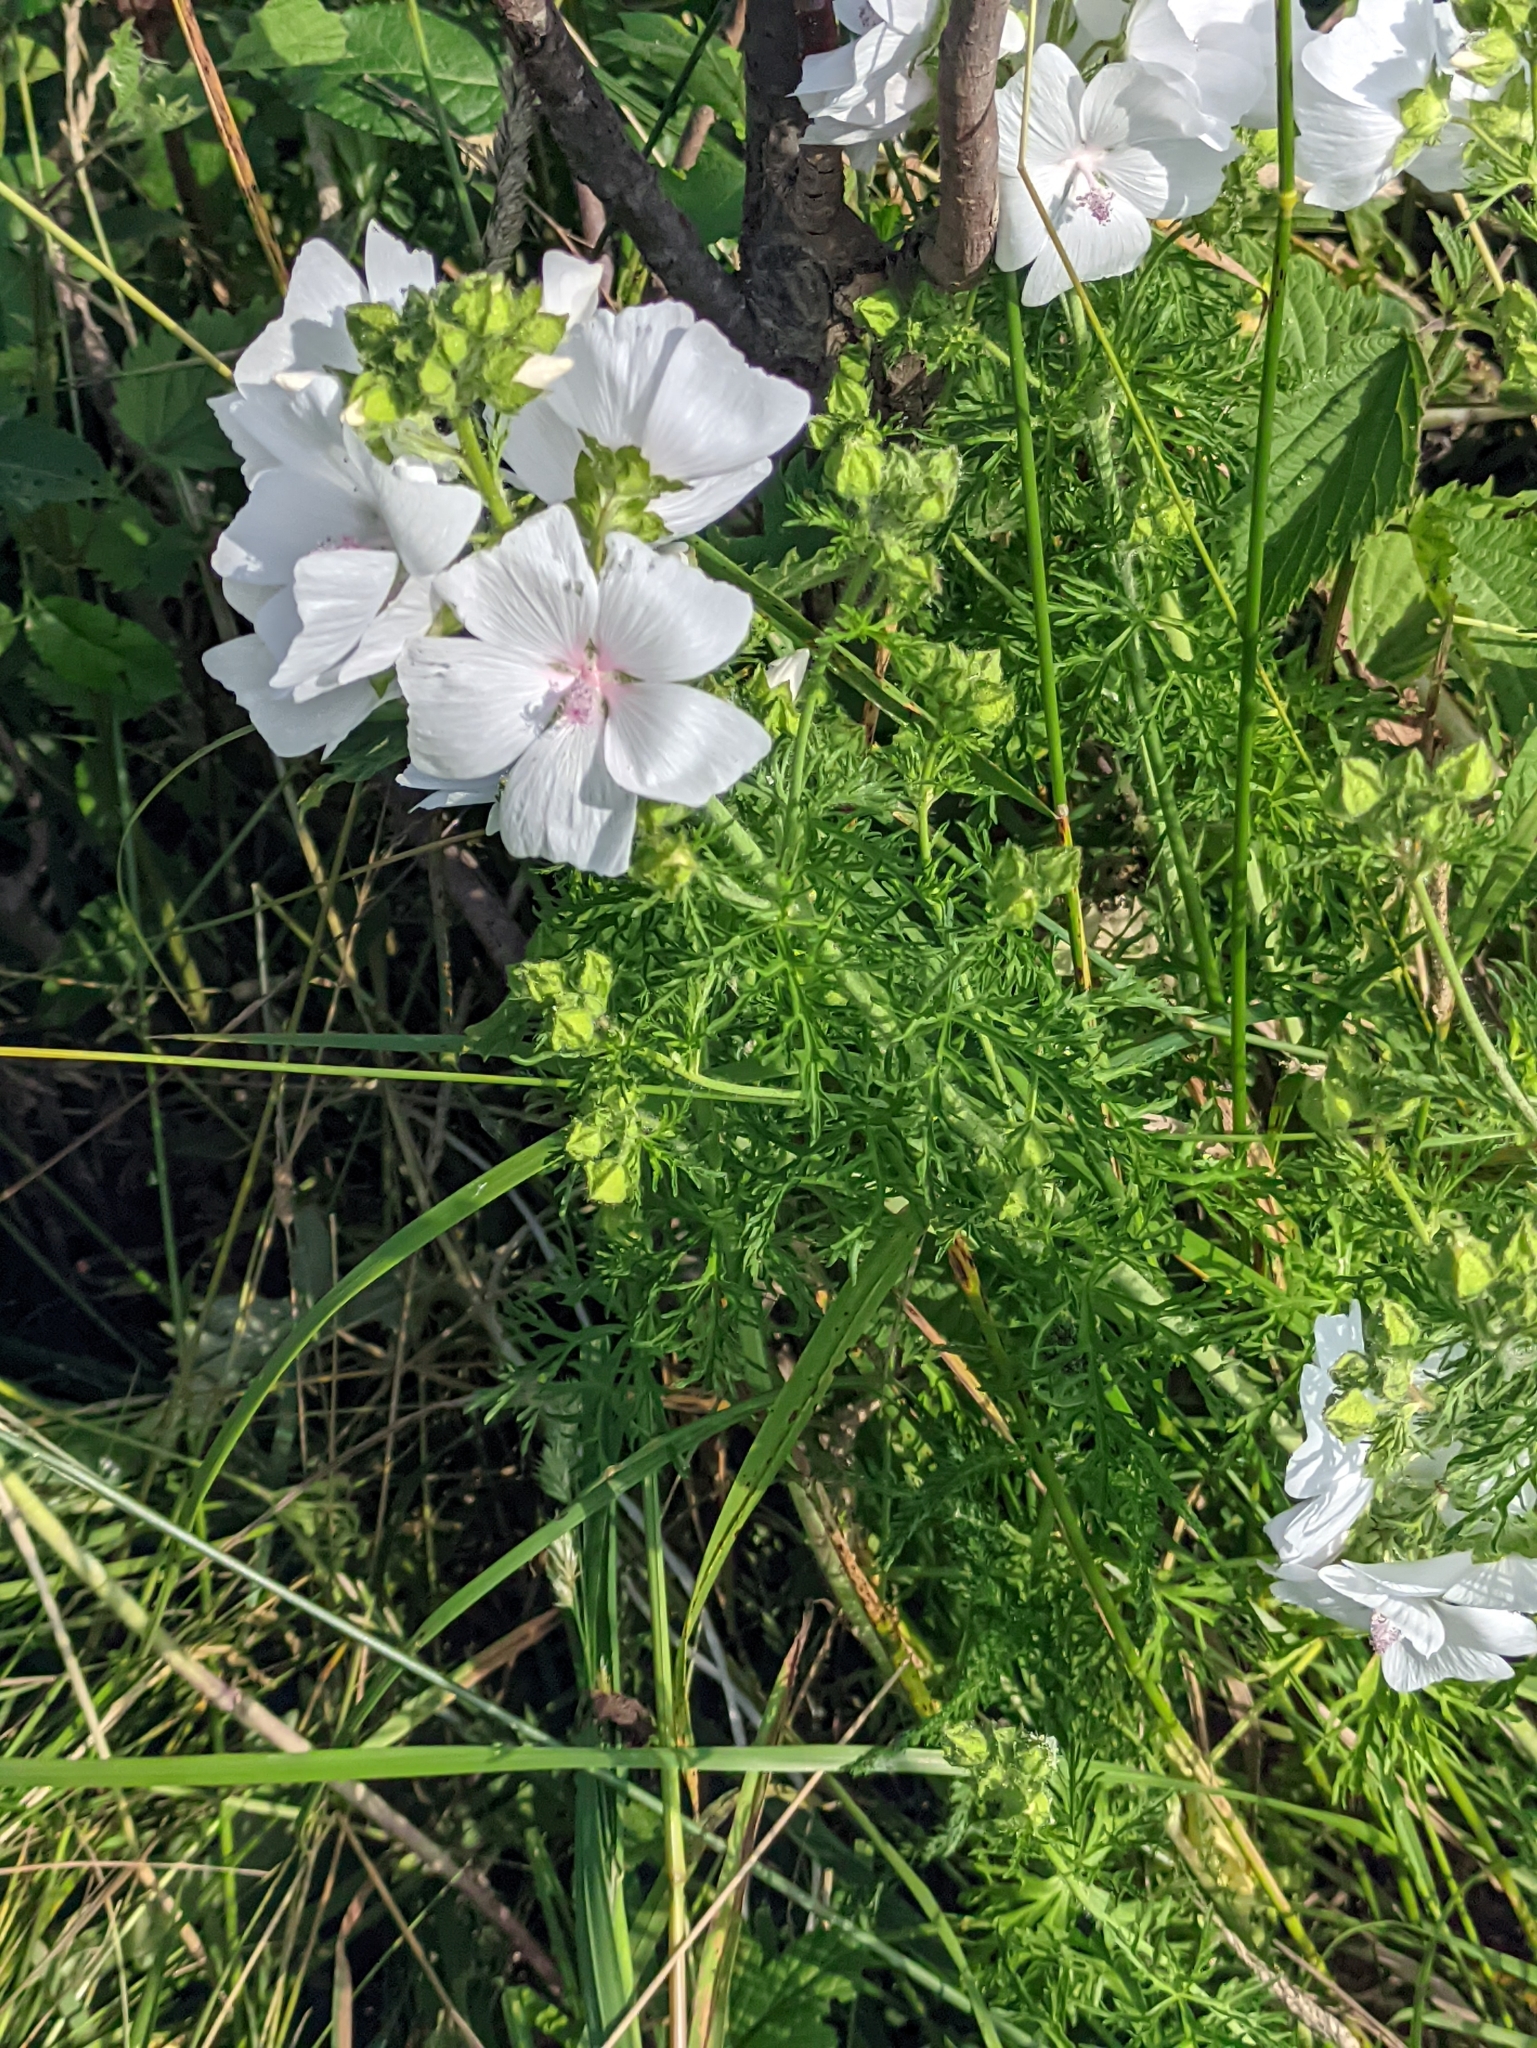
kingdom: Plantae
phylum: Tracheophyta
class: Magnoliopsida
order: Malvales
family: Malvaceae
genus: Malva
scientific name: Malva moschata
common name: Musk mallow
